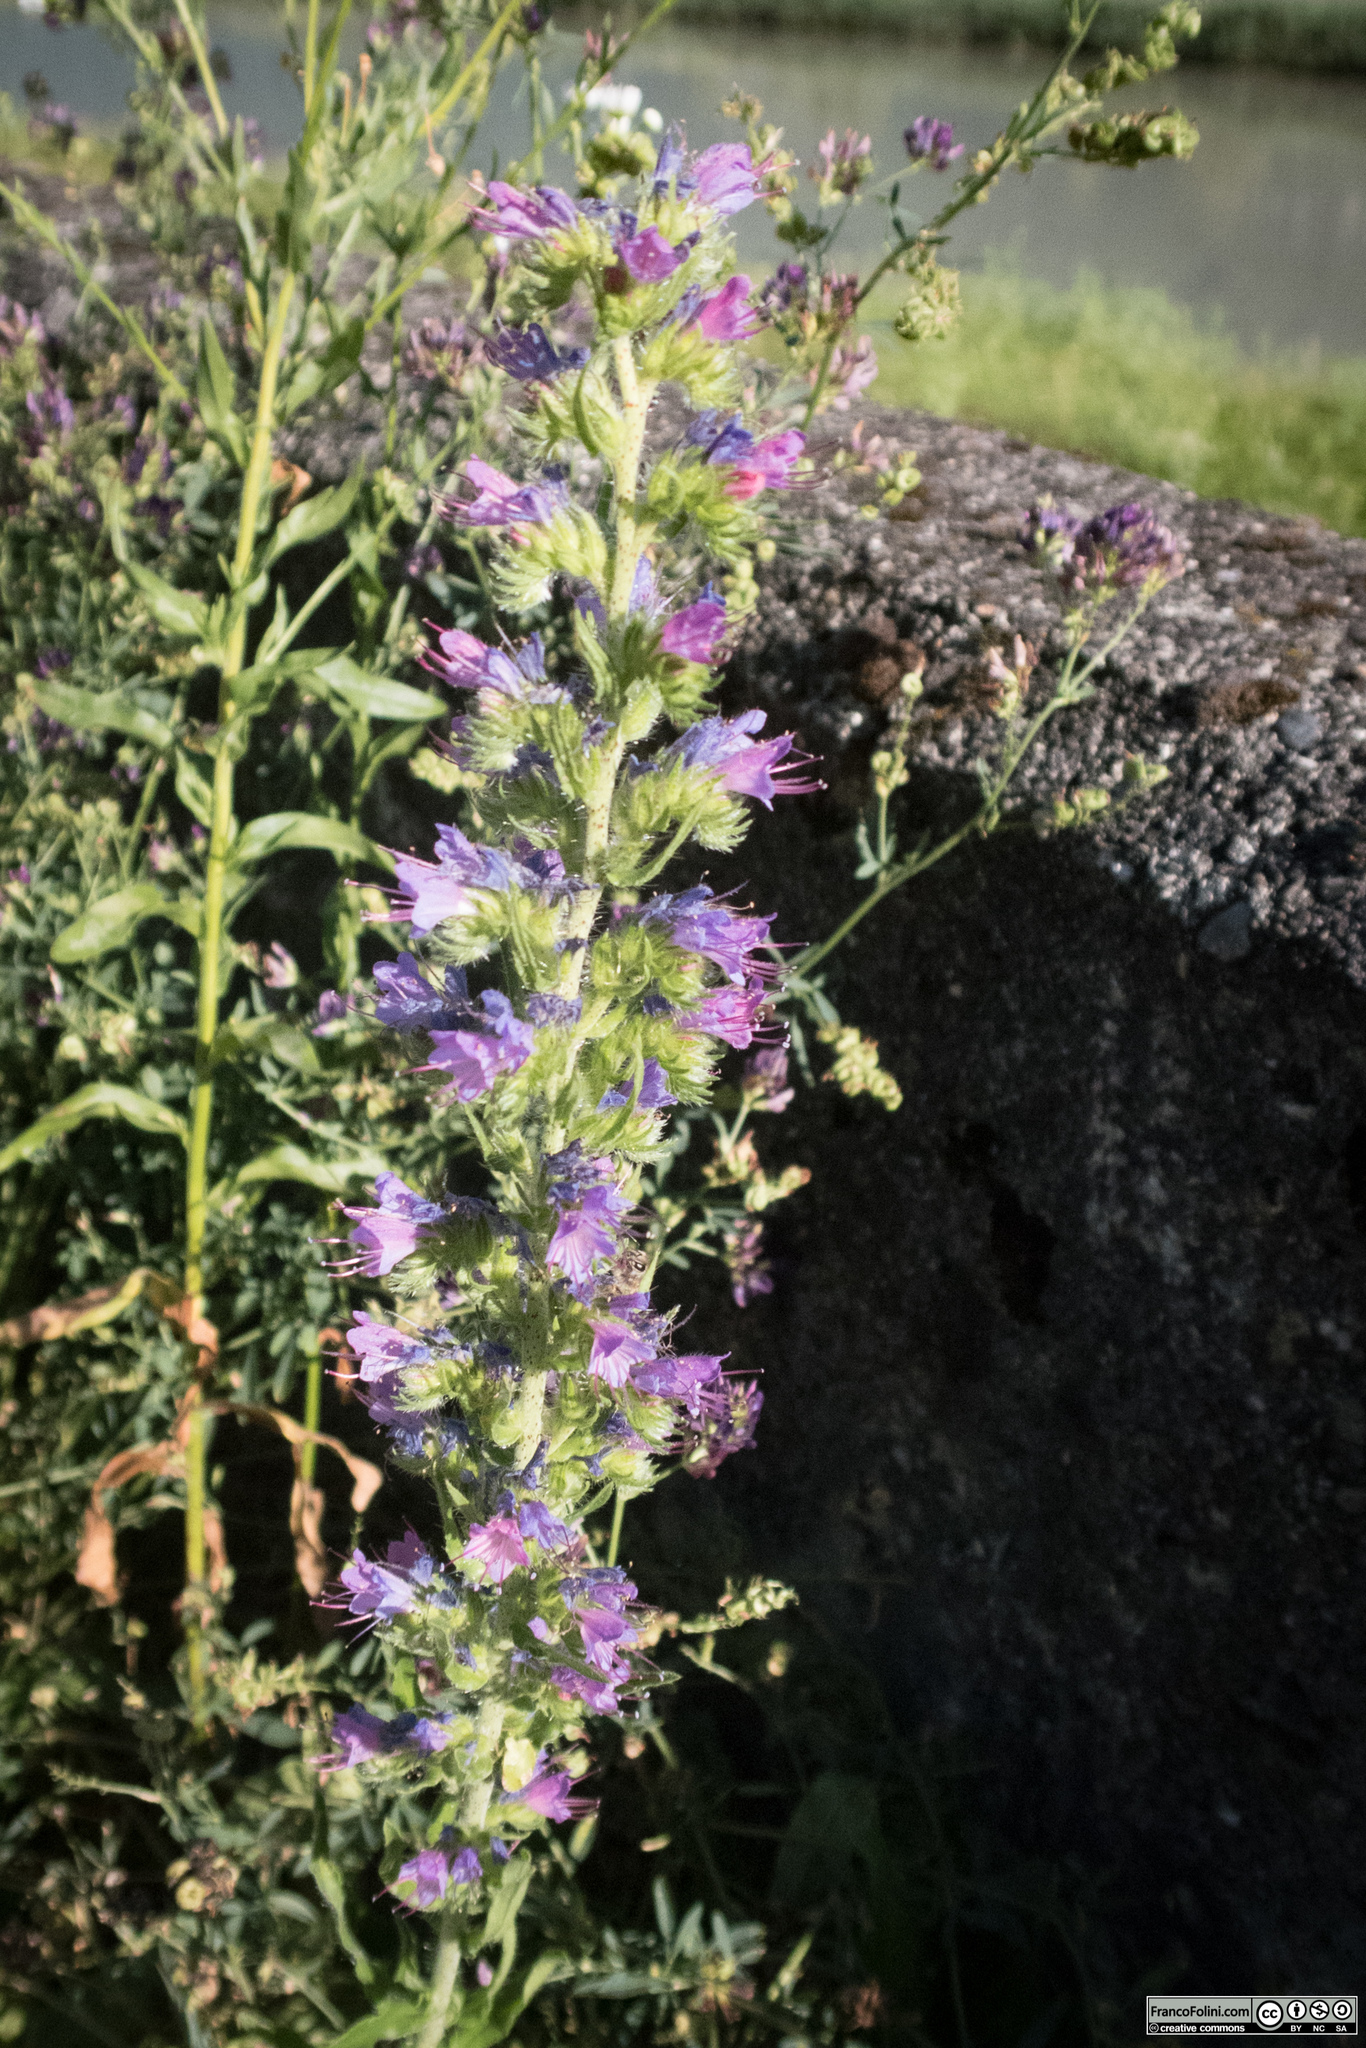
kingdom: Plantae
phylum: Tracheophyta
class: Magnoliopsida
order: Boraginales
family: Boraginaceae
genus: Echium
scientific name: Echium vulgare
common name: Common viper's bugloss
